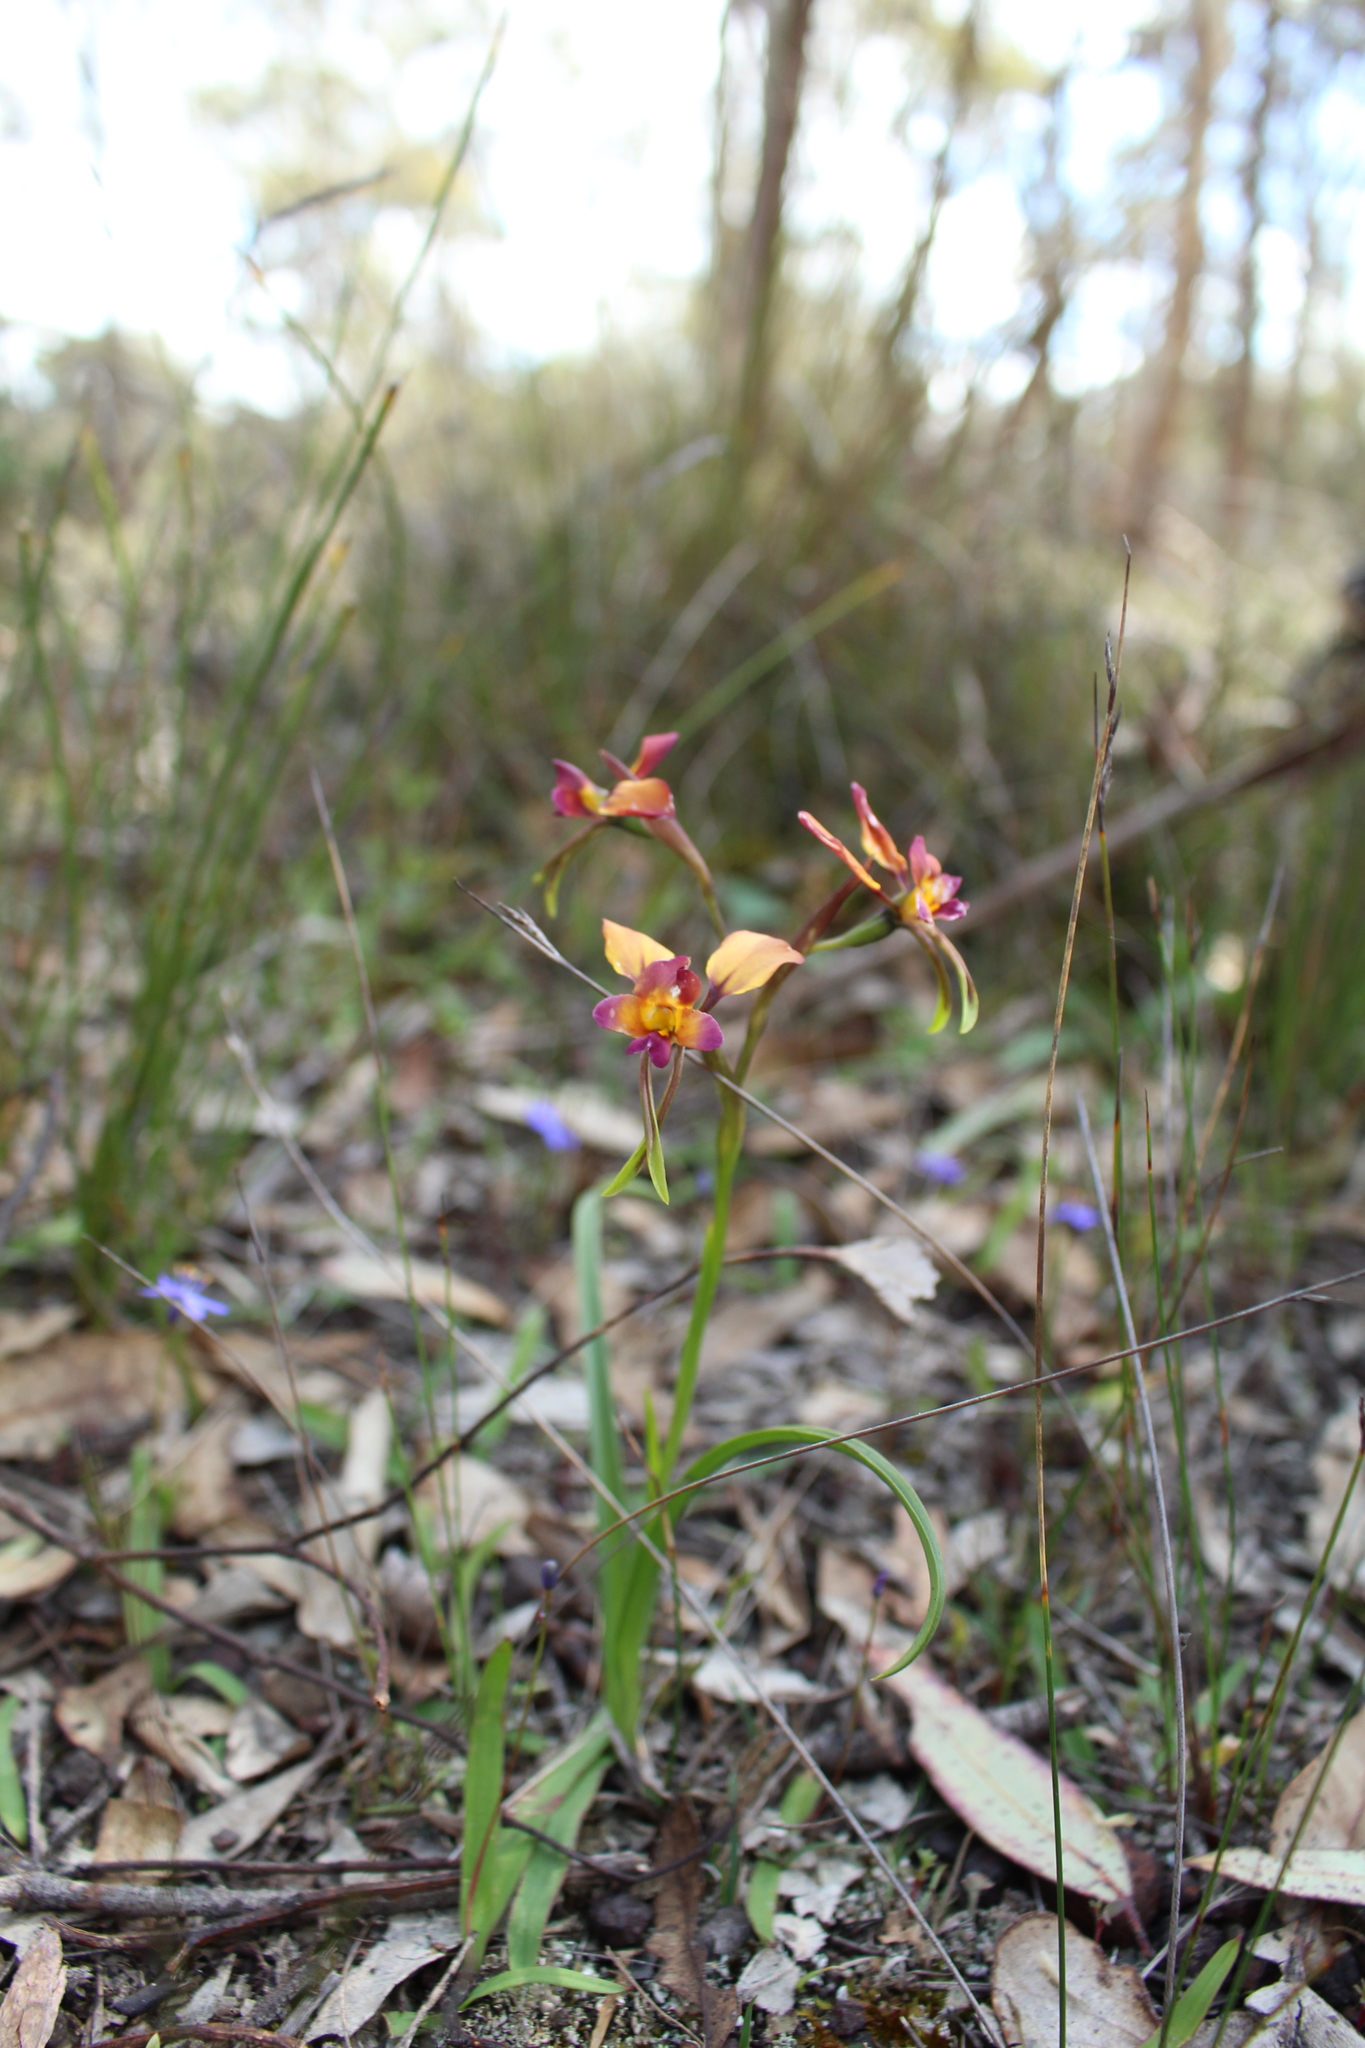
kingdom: Plantae
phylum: Tracheophyta
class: Liliopsida
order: Asparagales
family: Orchidaceae
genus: Diuris
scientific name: Diuris longifolia
